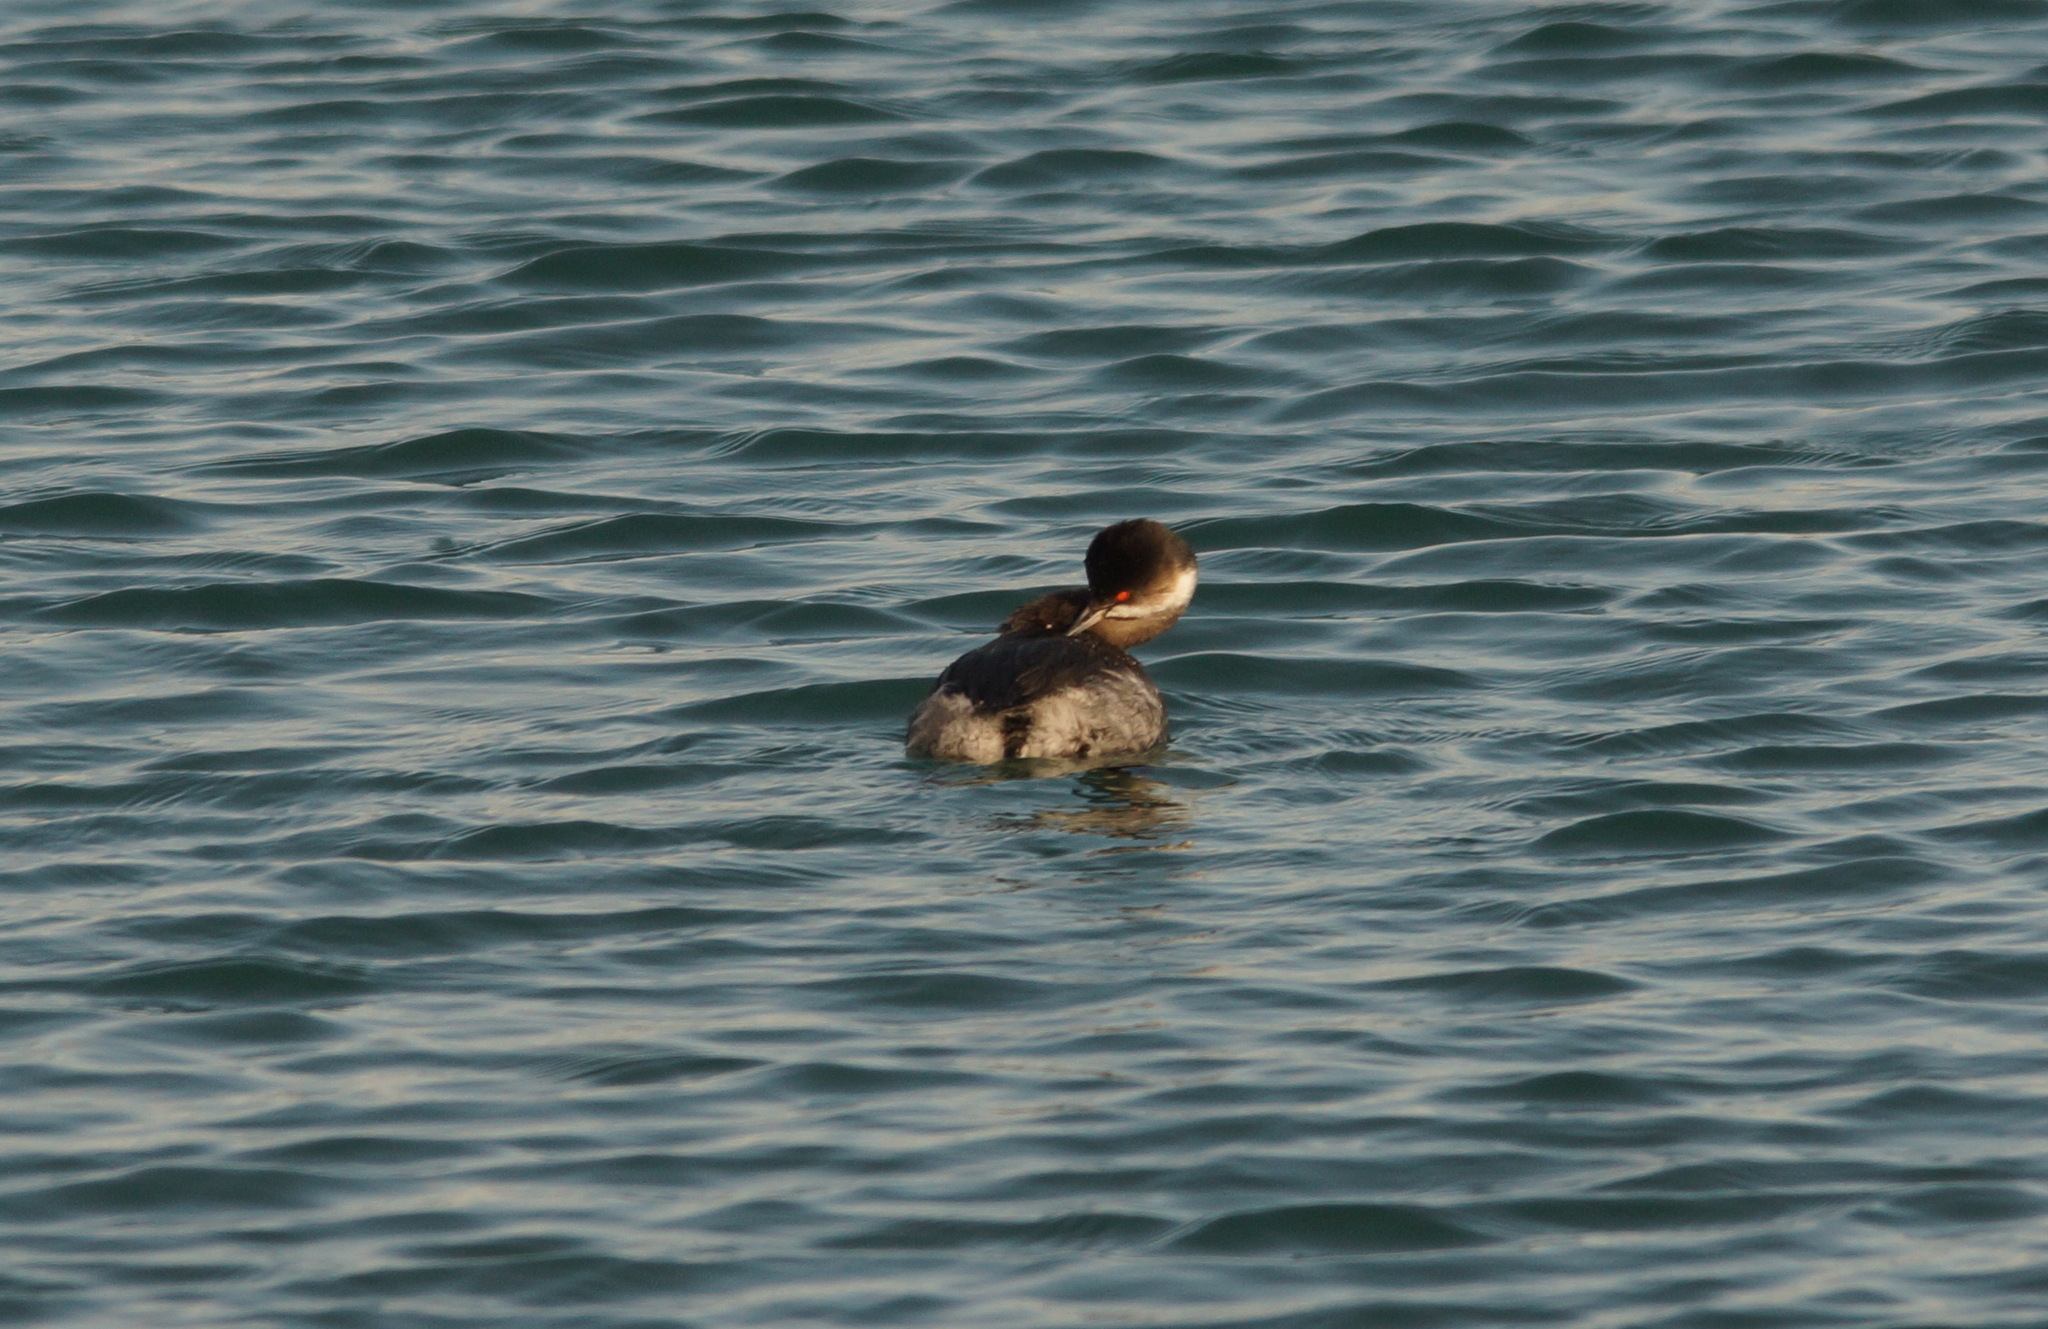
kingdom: Animalia
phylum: Chordata
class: Aves
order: Podicipediformes
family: Podicipedidae
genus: Podiceps
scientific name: Podiceps nigricollis
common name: Black-necked grebe
